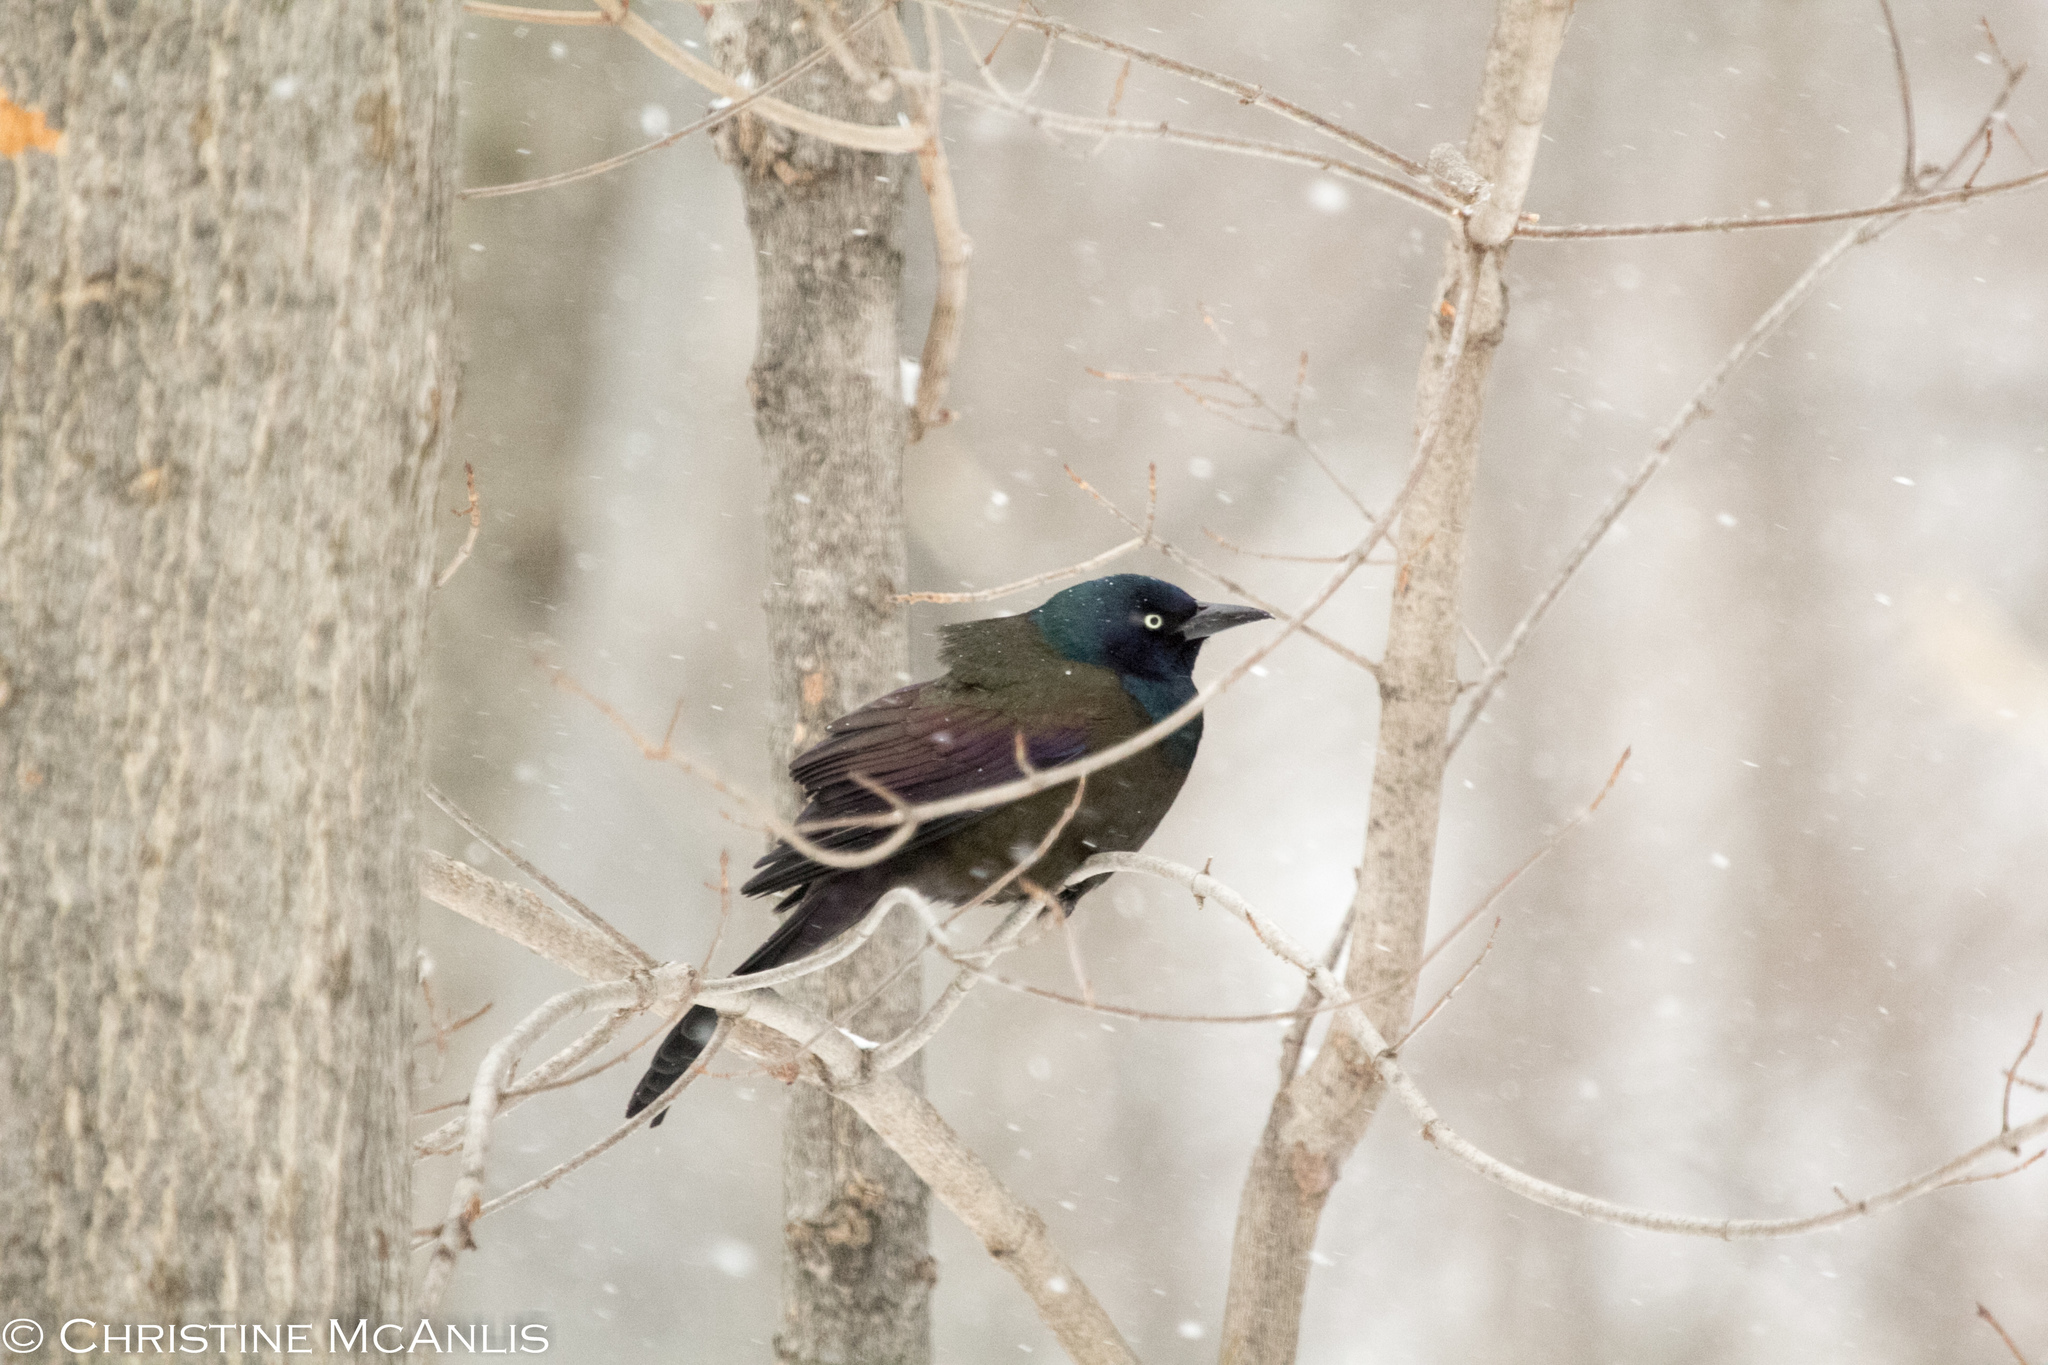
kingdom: Animalia
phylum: Chordata
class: Aves
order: Passeriformes
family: Icteridae
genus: Quiscalus
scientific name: Quiscalus quiscula
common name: Common grackle
